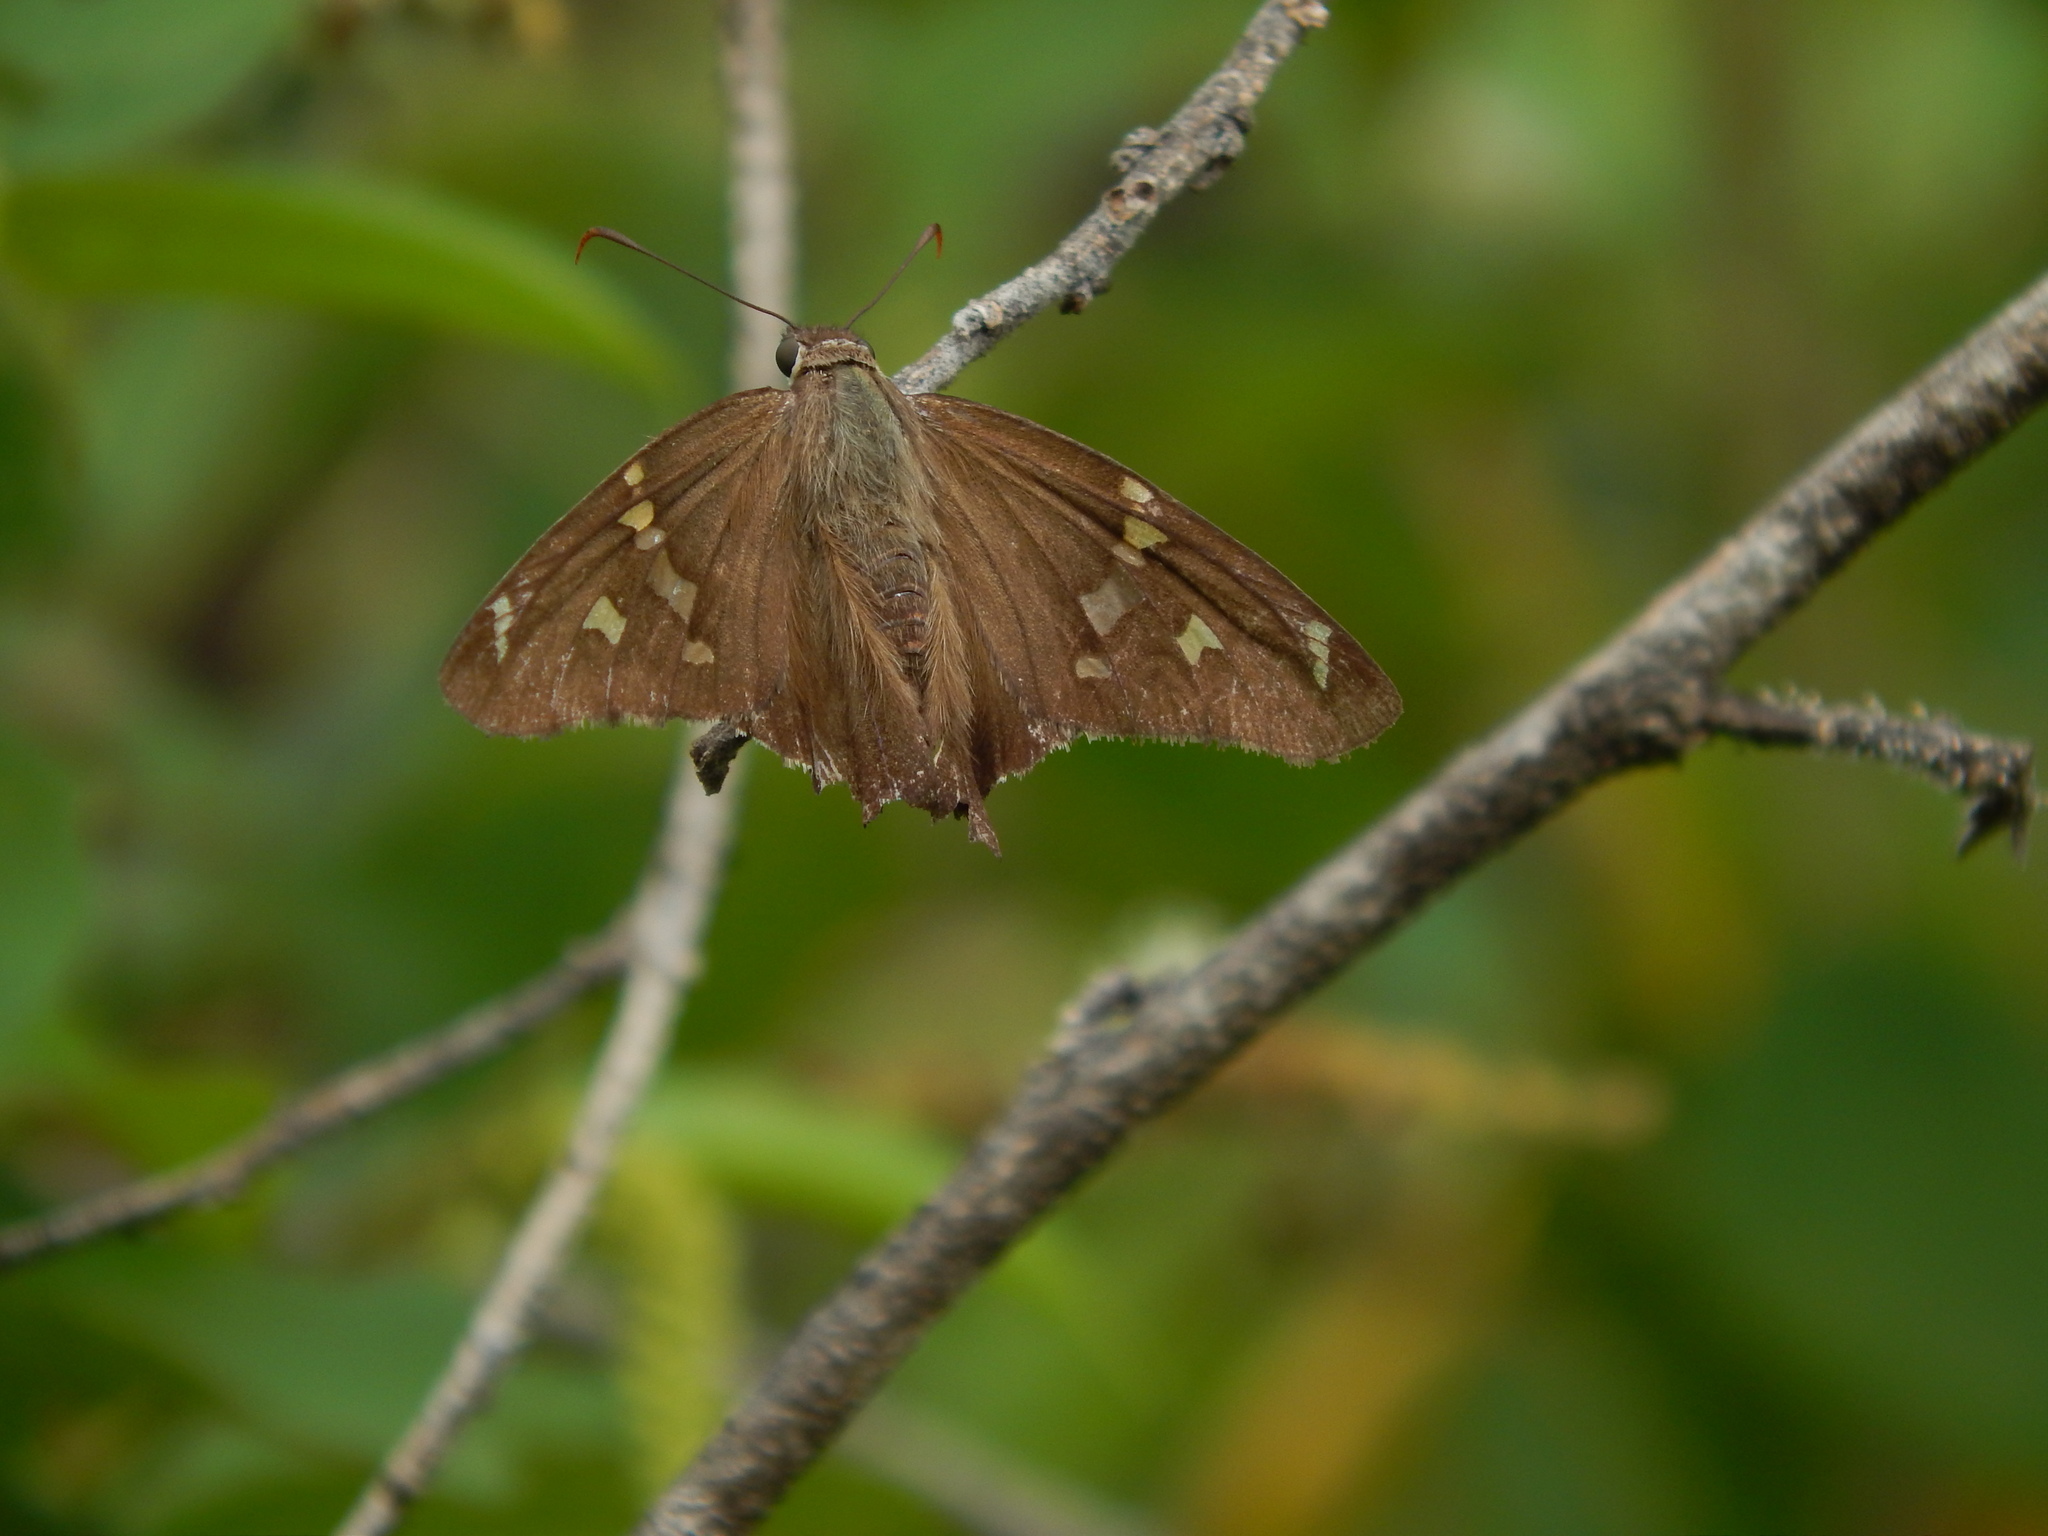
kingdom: Animalia
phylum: Arthropoda
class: Insecta
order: Lepidoptera
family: Hesperiidae
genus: Chioides
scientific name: Chioides catillus
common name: Silverbanded skipper
